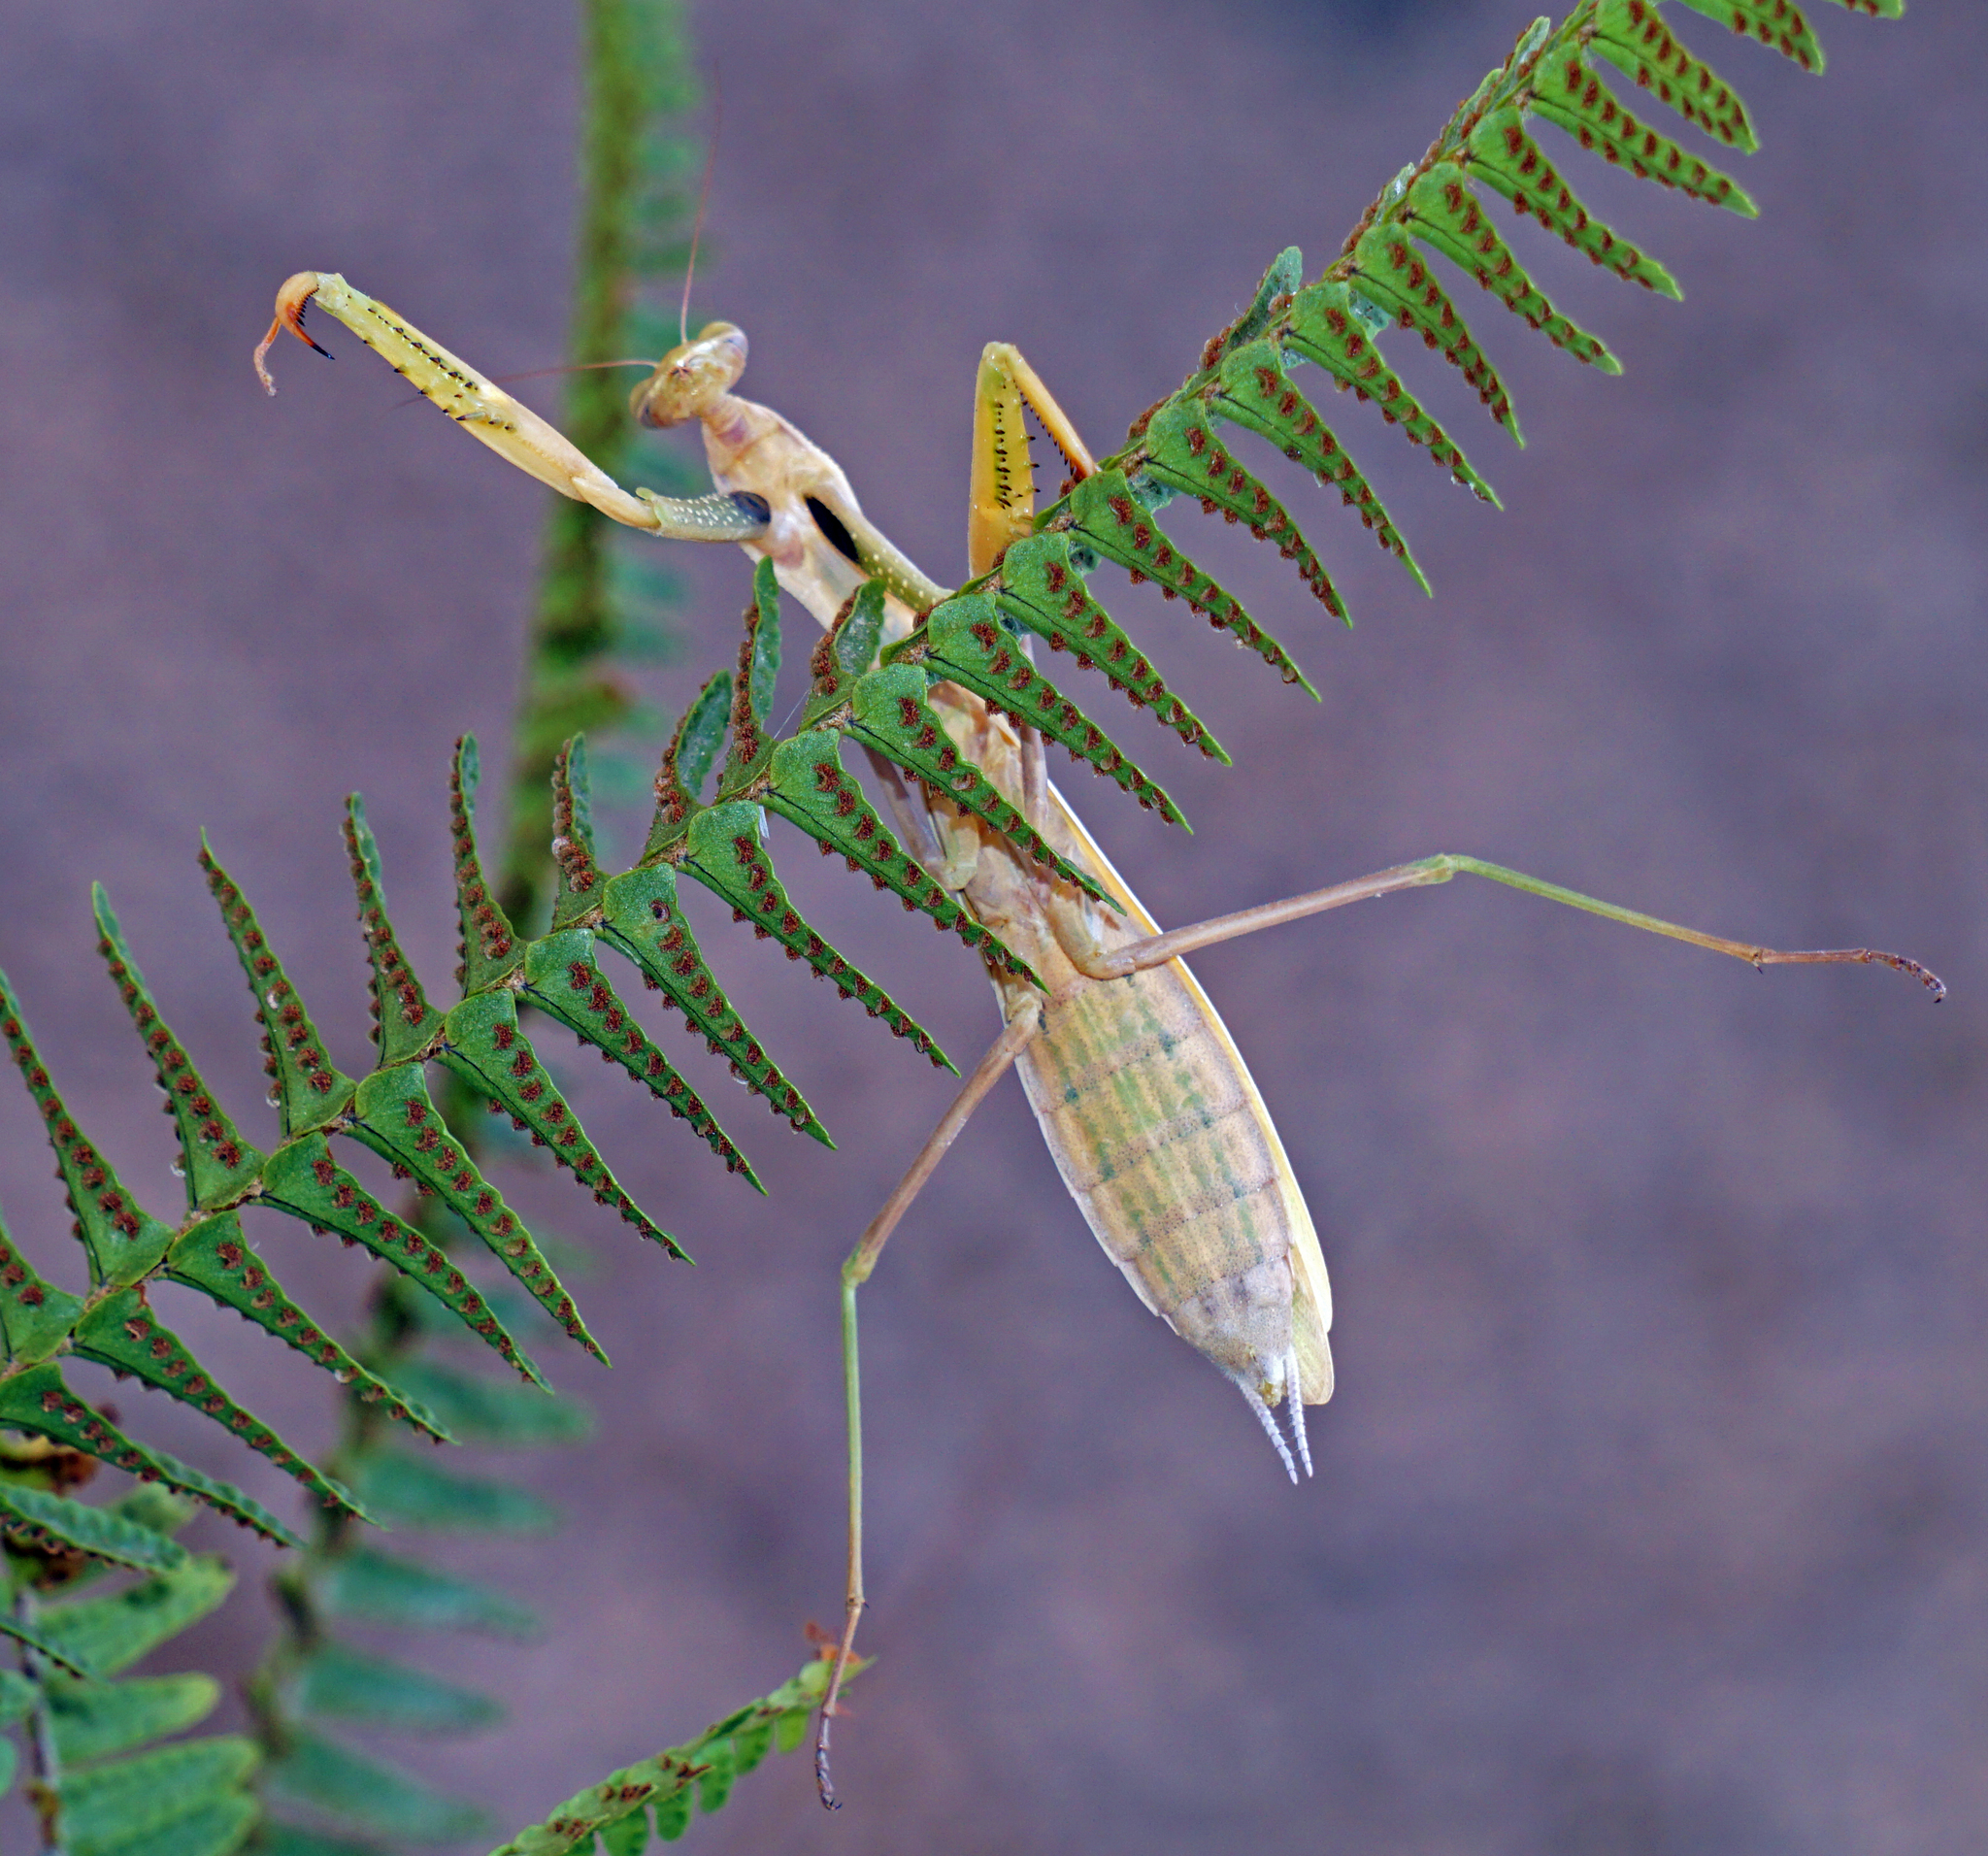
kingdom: Animalia
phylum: Arthropoda
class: Insecta
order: Mantodea
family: Mantidae
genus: Mantis
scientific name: Mantis religiosa
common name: Praying mantis
